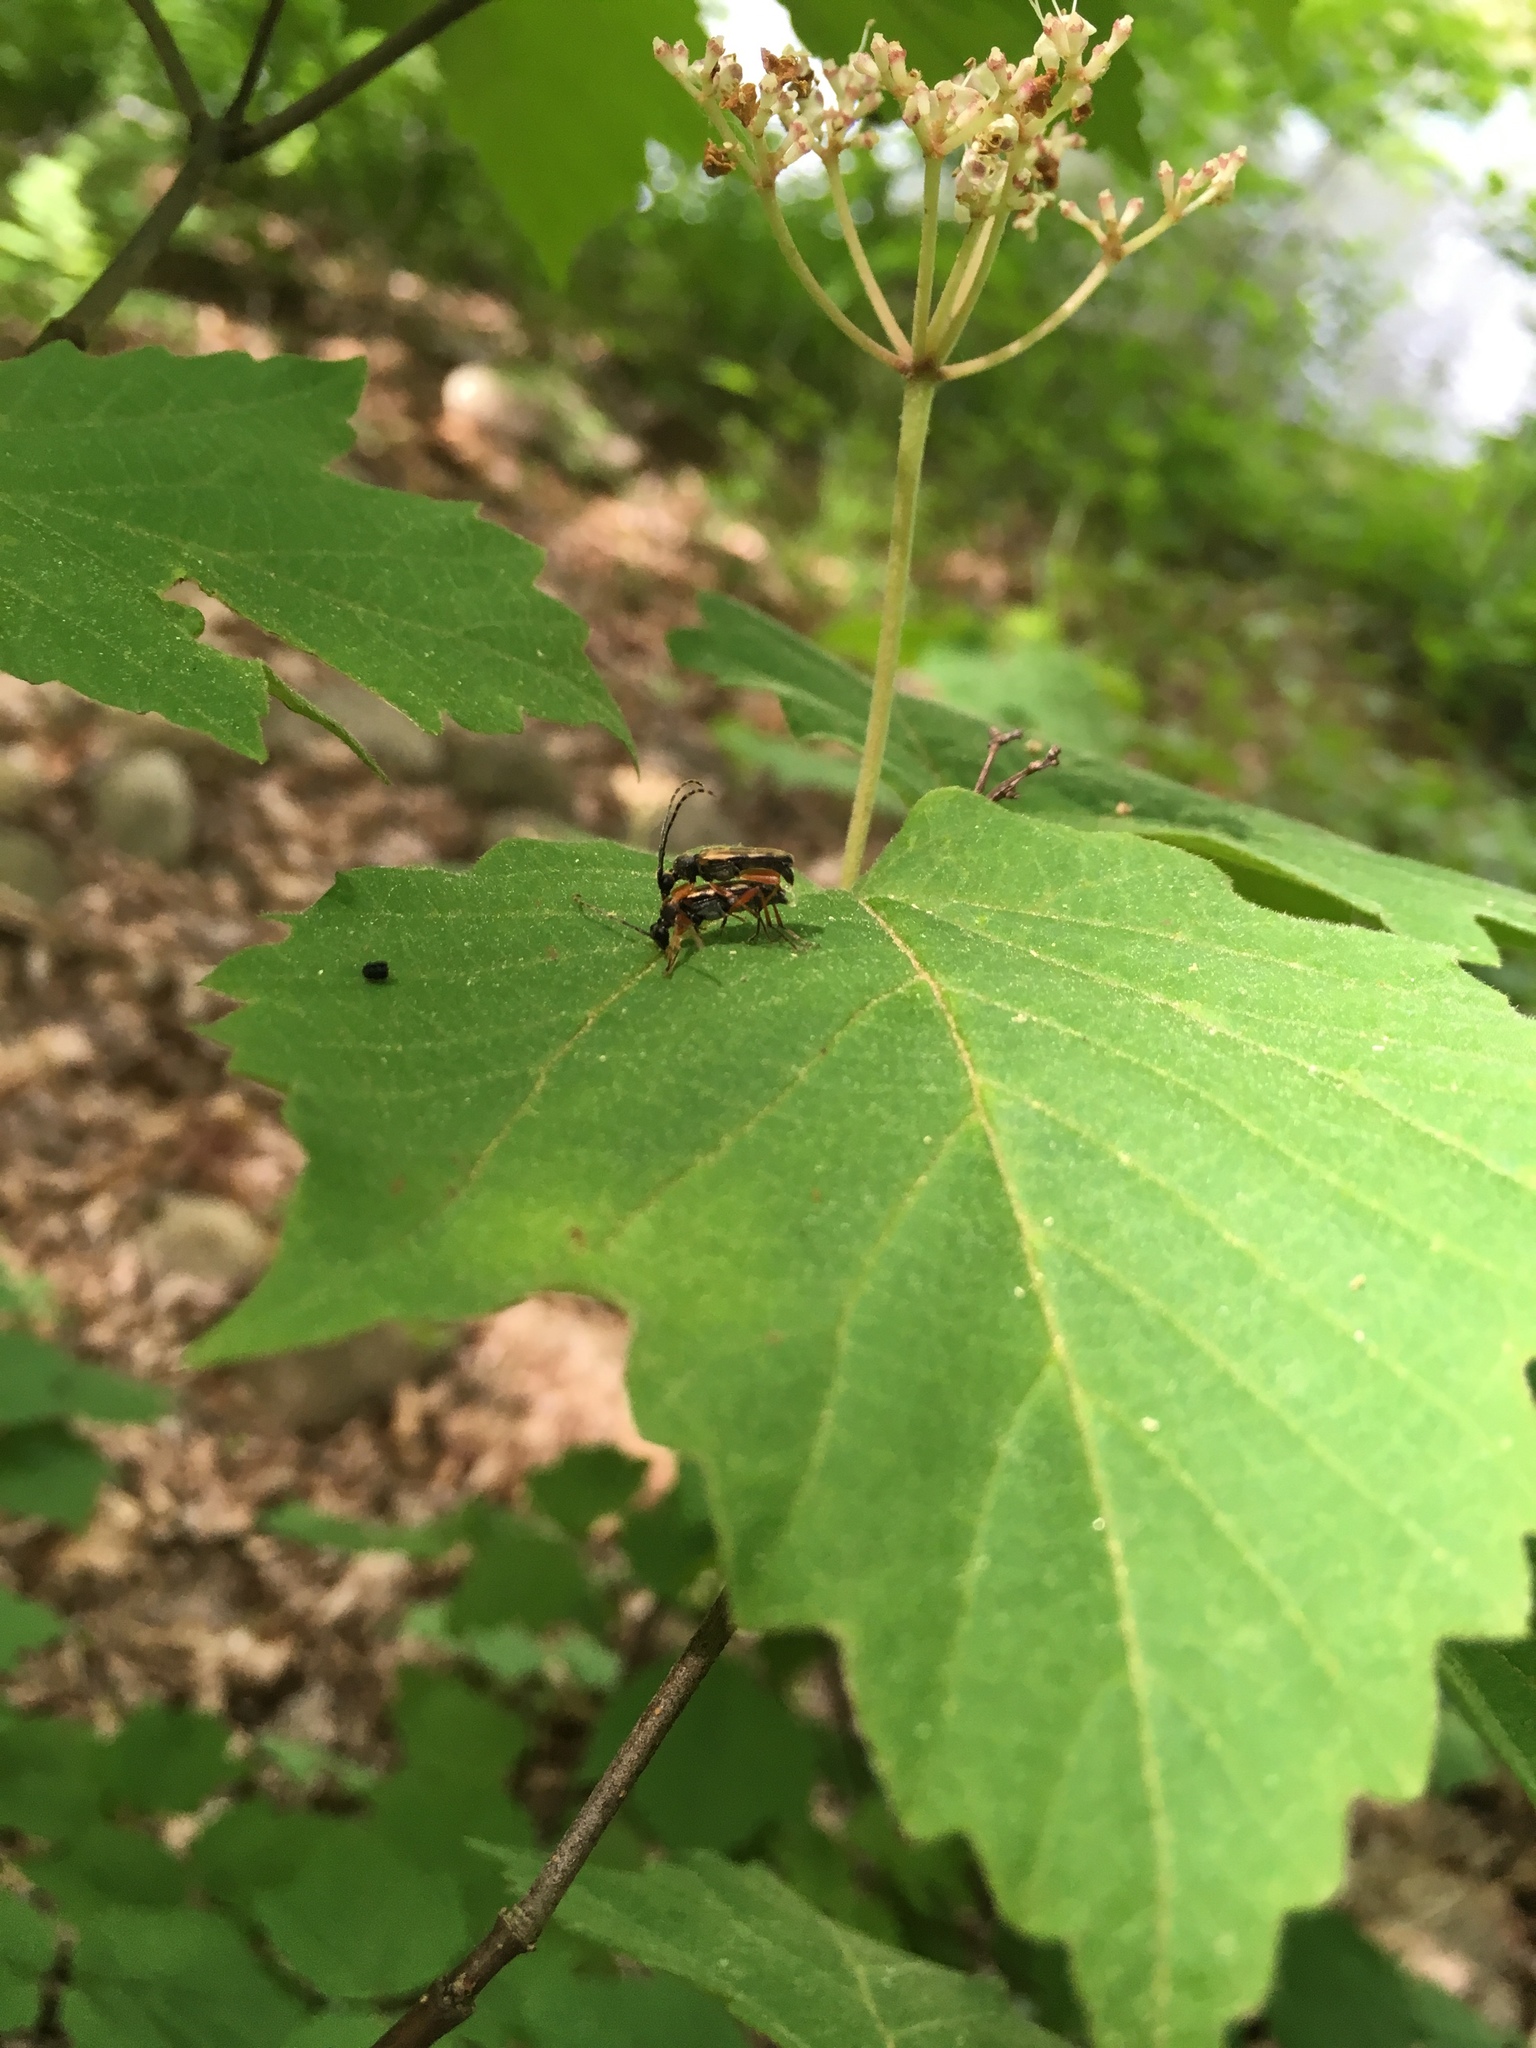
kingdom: Animalia
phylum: Arthropoda
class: Insecta
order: Coleoptera
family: Cerambycidae
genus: Analeptura
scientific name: Analeptura lineola
